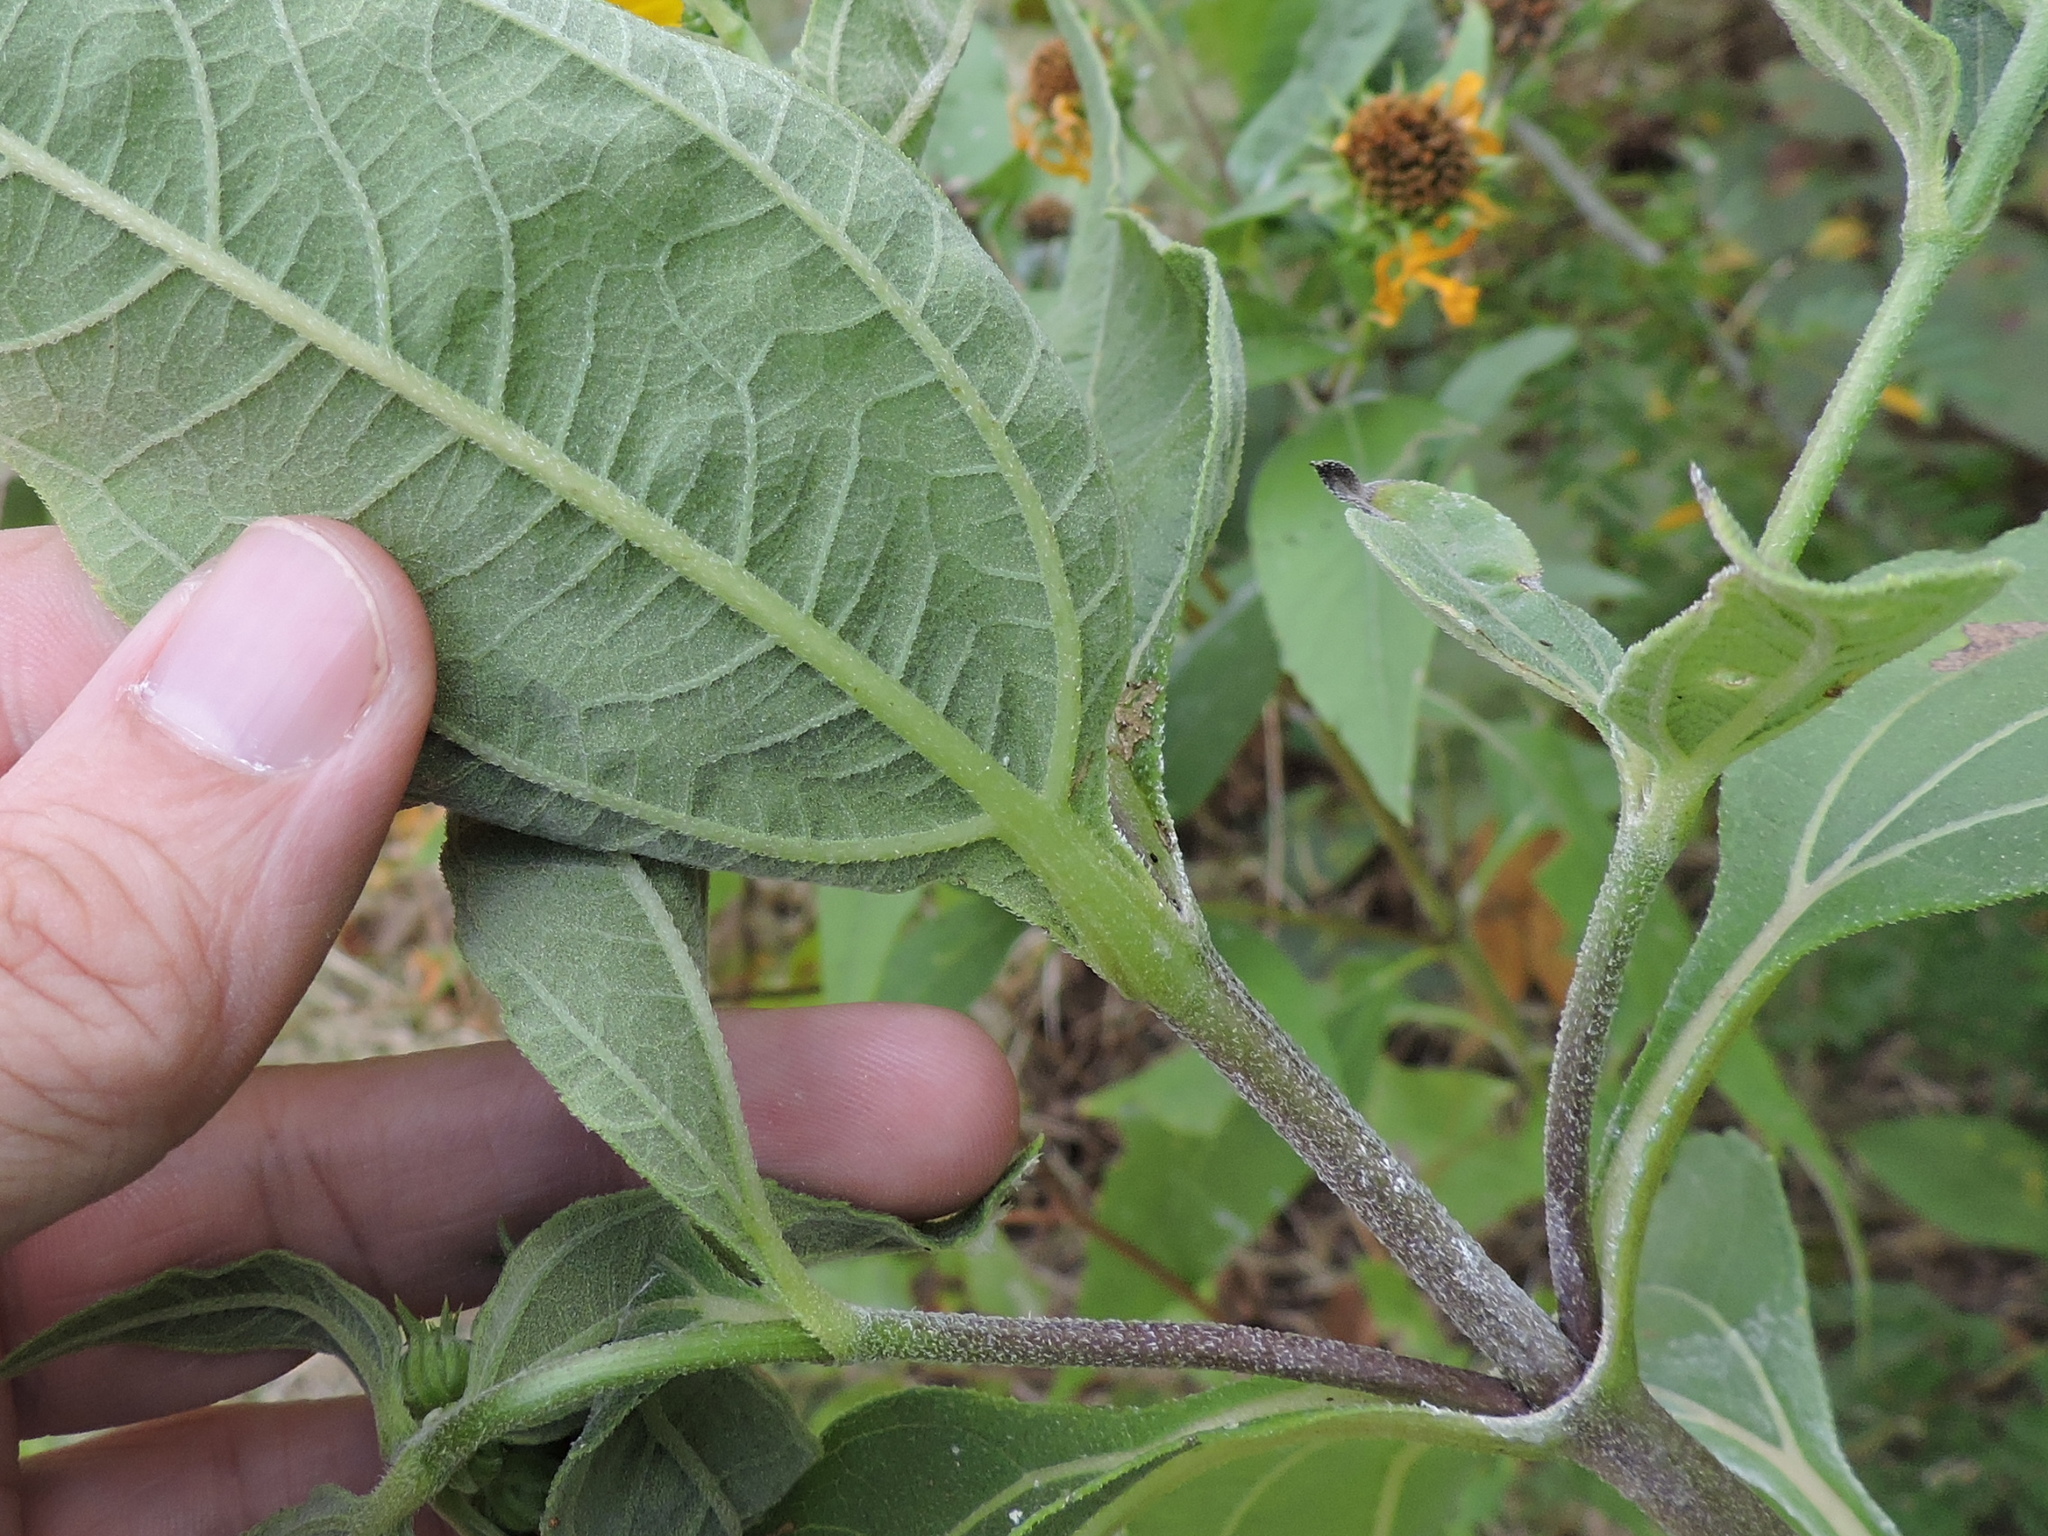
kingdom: Plantae
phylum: Tracheophyta
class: Magnoliopsida
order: Asterales
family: Asteraceae
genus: Helianthus
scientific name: Helianthus hirsutus
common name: Hairy sunflower
